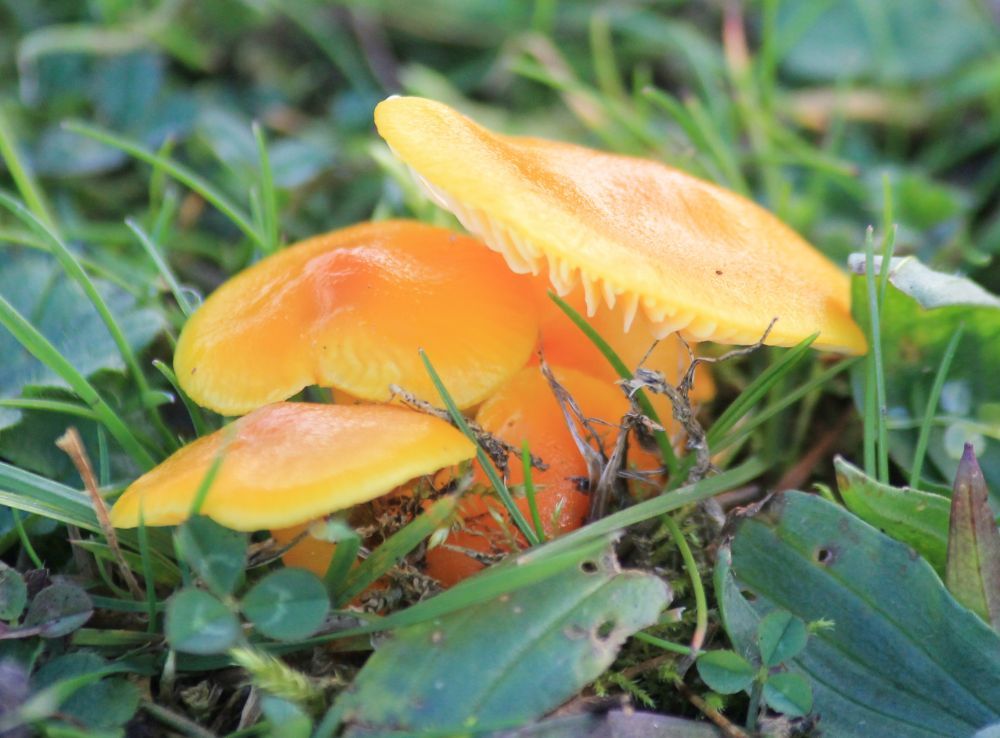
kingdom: Fungi
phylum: Basidiomycota
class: Agaricomycetes
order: Agaricales
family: Hygrophoraceae
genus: Hygrocybe
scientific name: Hygrocybe ceracea
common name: Butter waxcap
